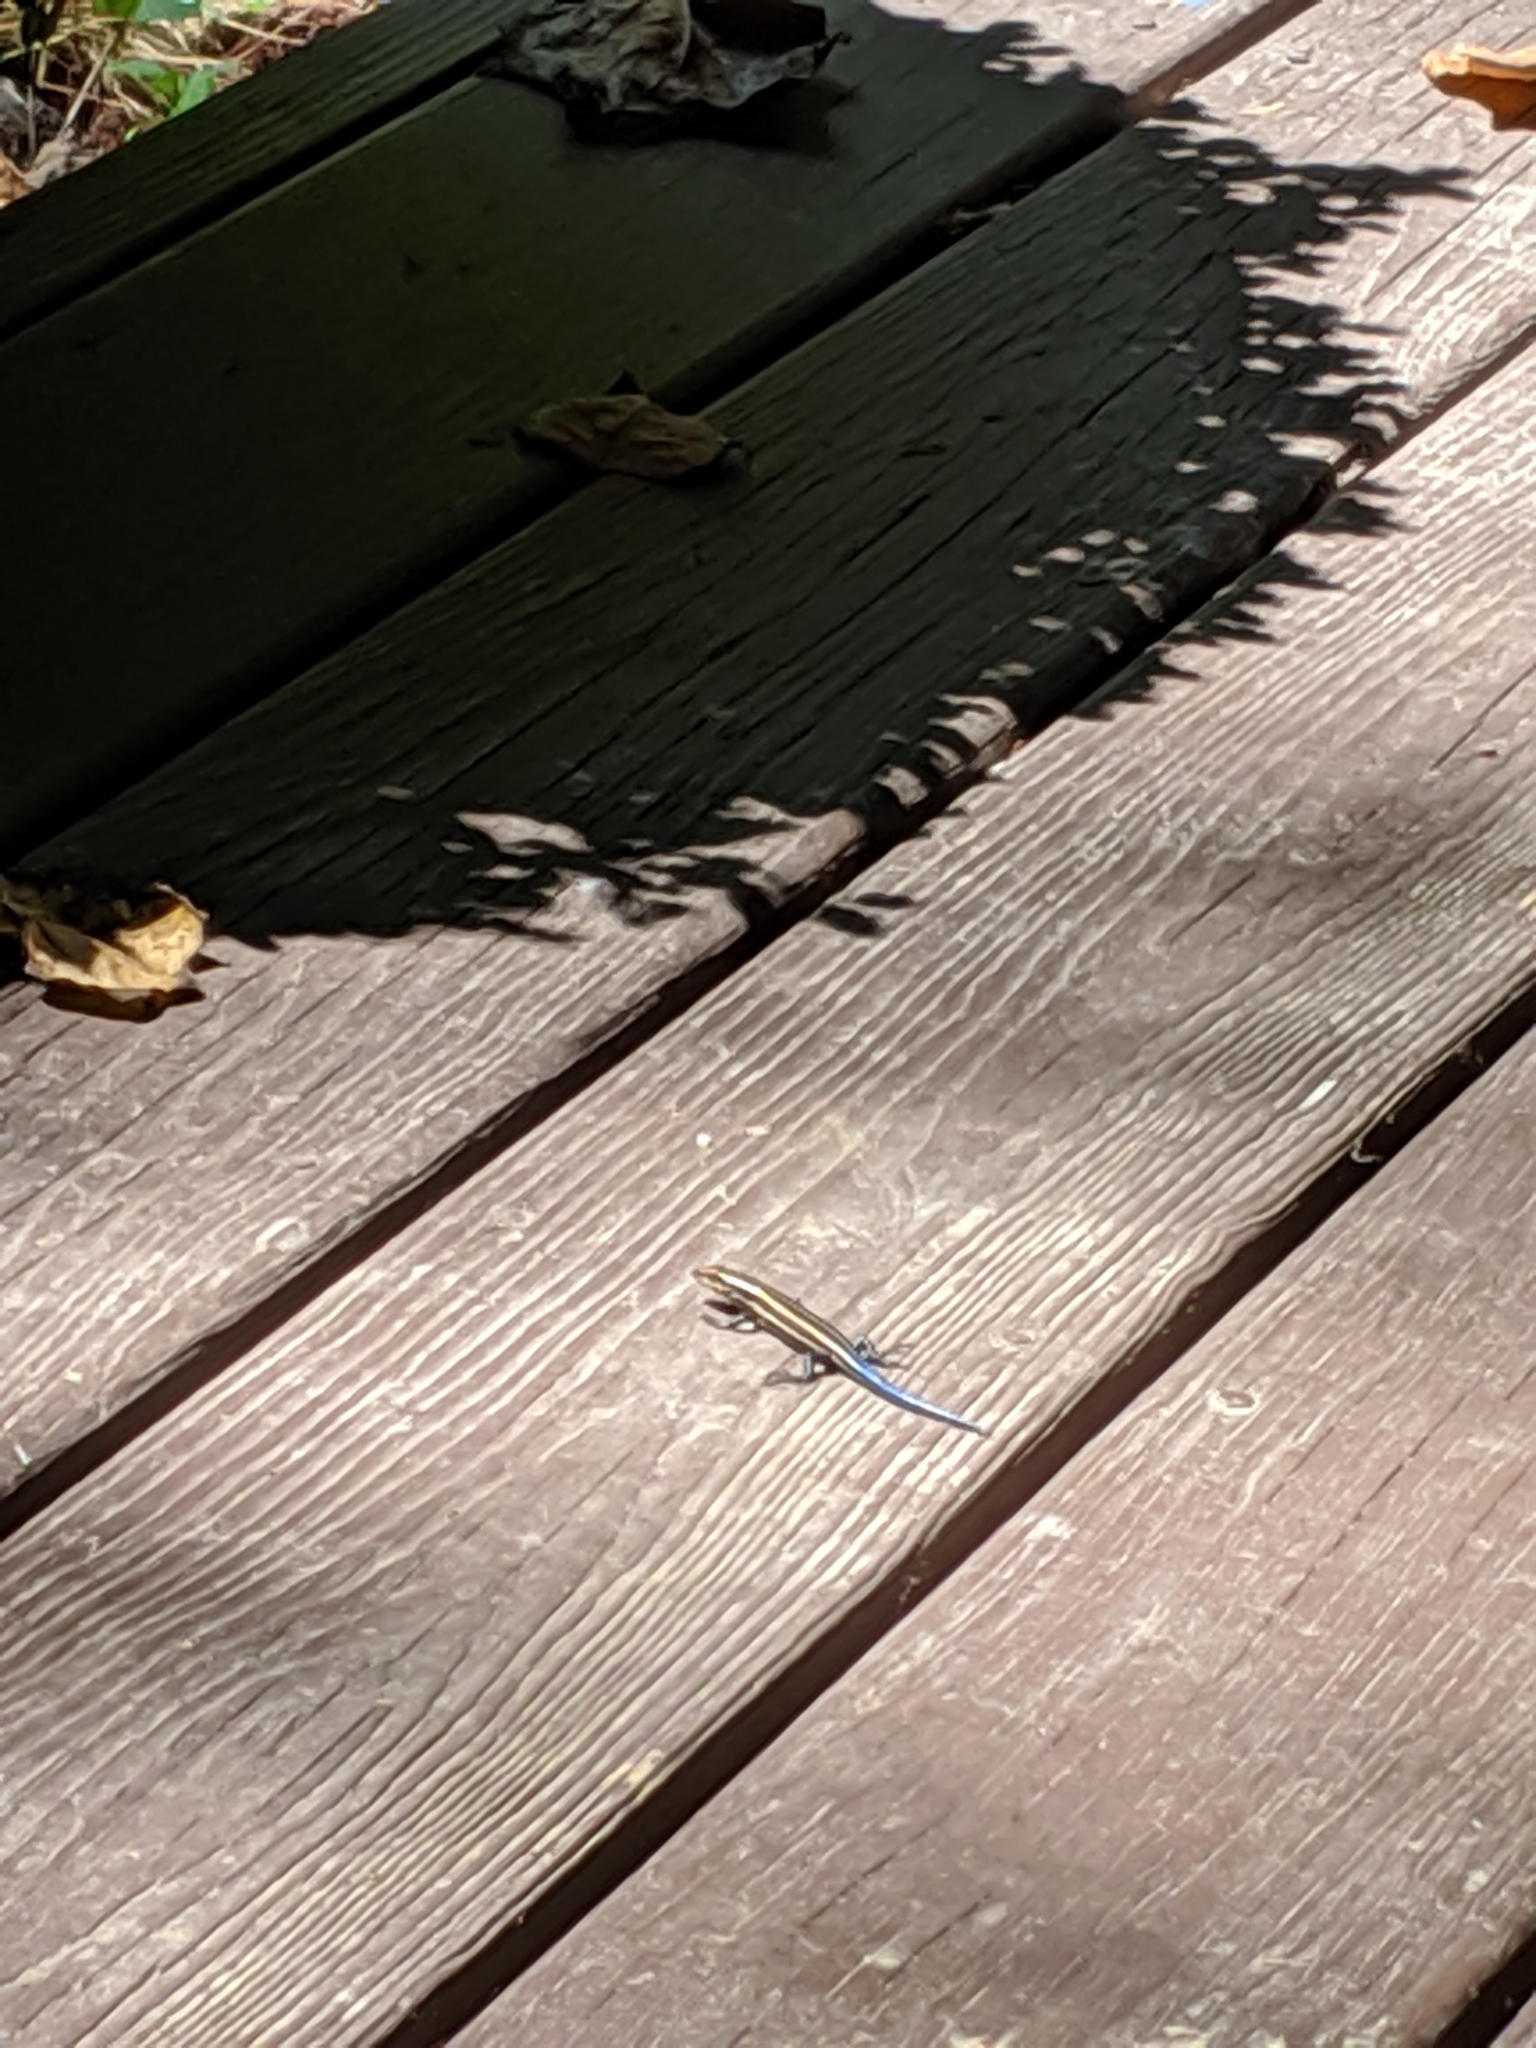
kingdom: Animalia
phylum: Chordata
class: Squamata
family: Scincidae
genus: Plestiodon
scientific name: Plestiodon fasciatus
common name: Five-lined skink
